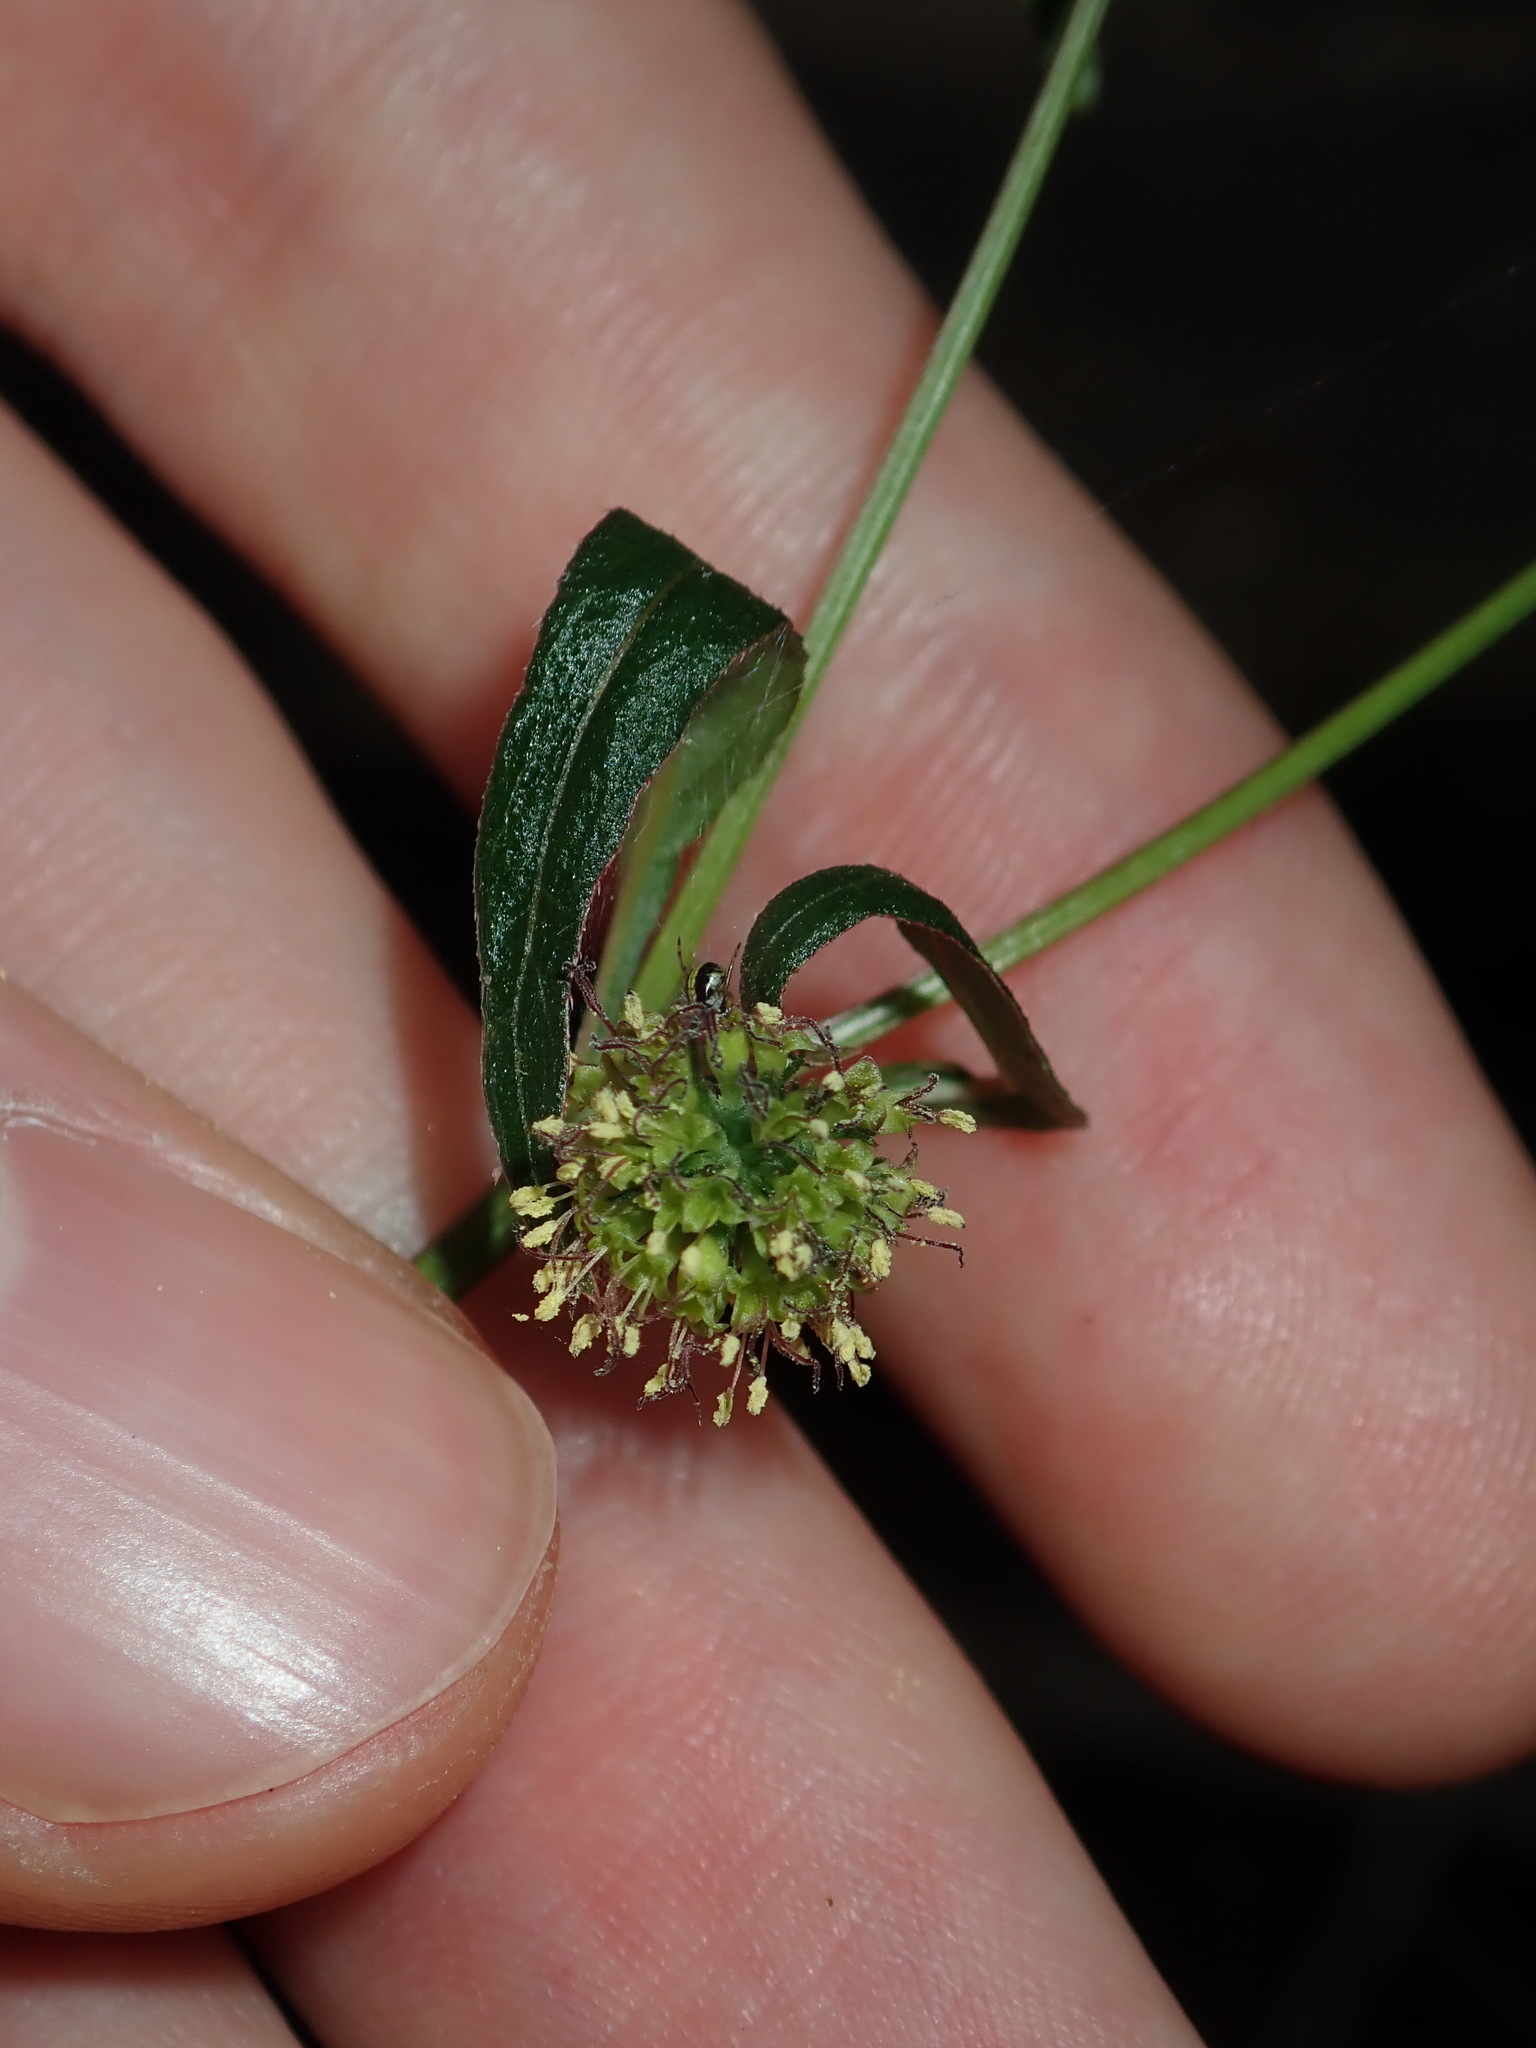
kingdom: Plantae
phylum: Tracheophyta
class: Magnoliopsida
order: Gentianales
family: Rubiaceae
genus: Opercularia
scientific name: Opercularia diphylla
